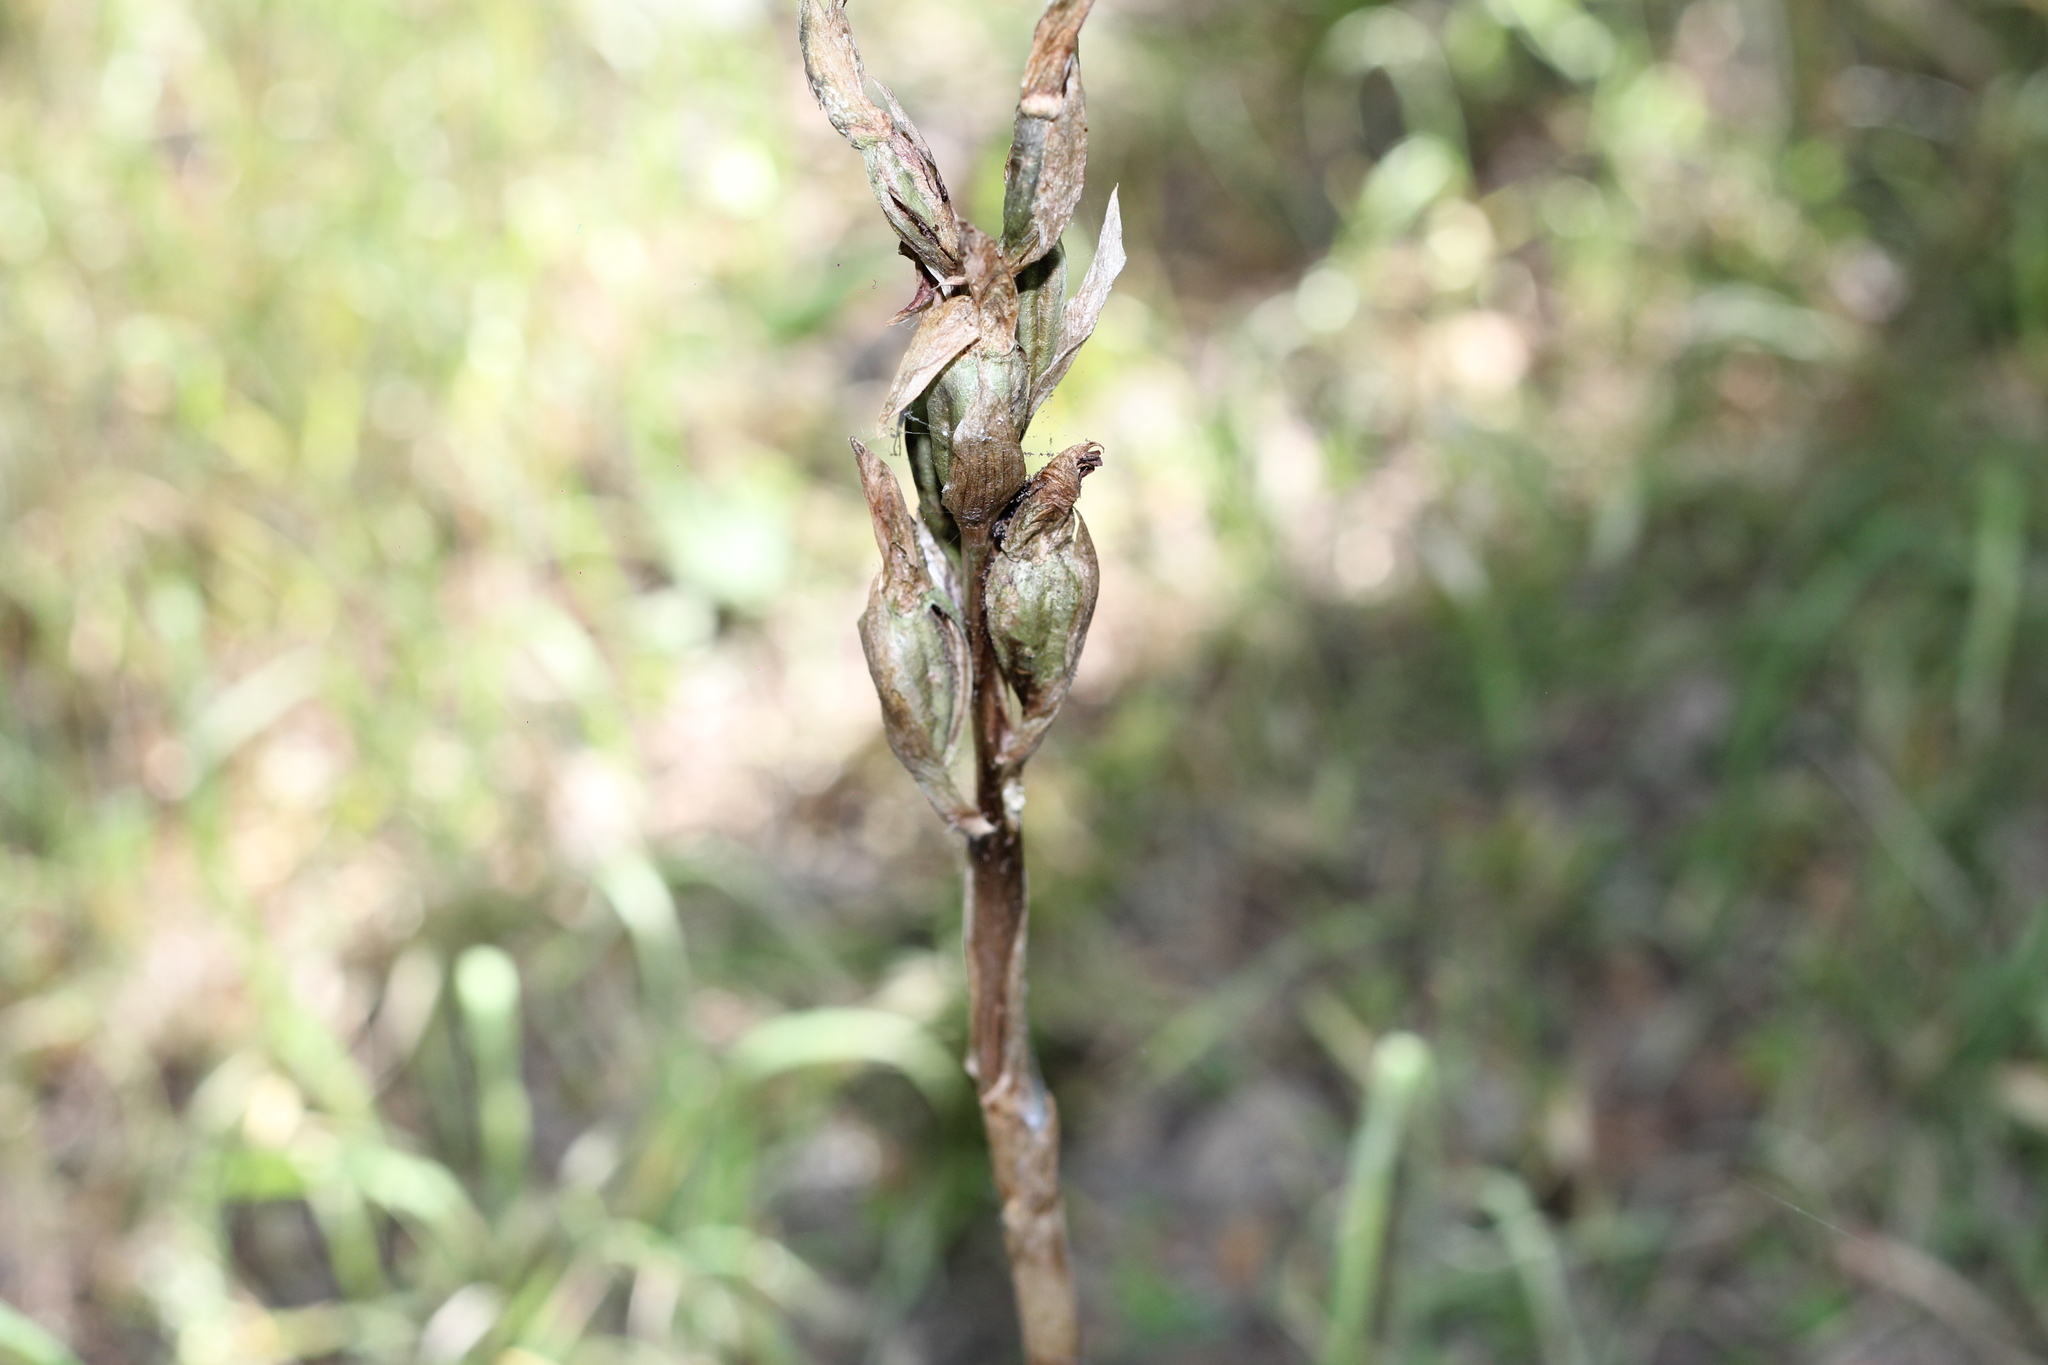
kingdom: Plantae
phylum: Tracheophyta
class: Liliopsida
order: Asparagales
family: Orchidaceae
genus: Chloraea
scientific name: Chloraea membranacea
